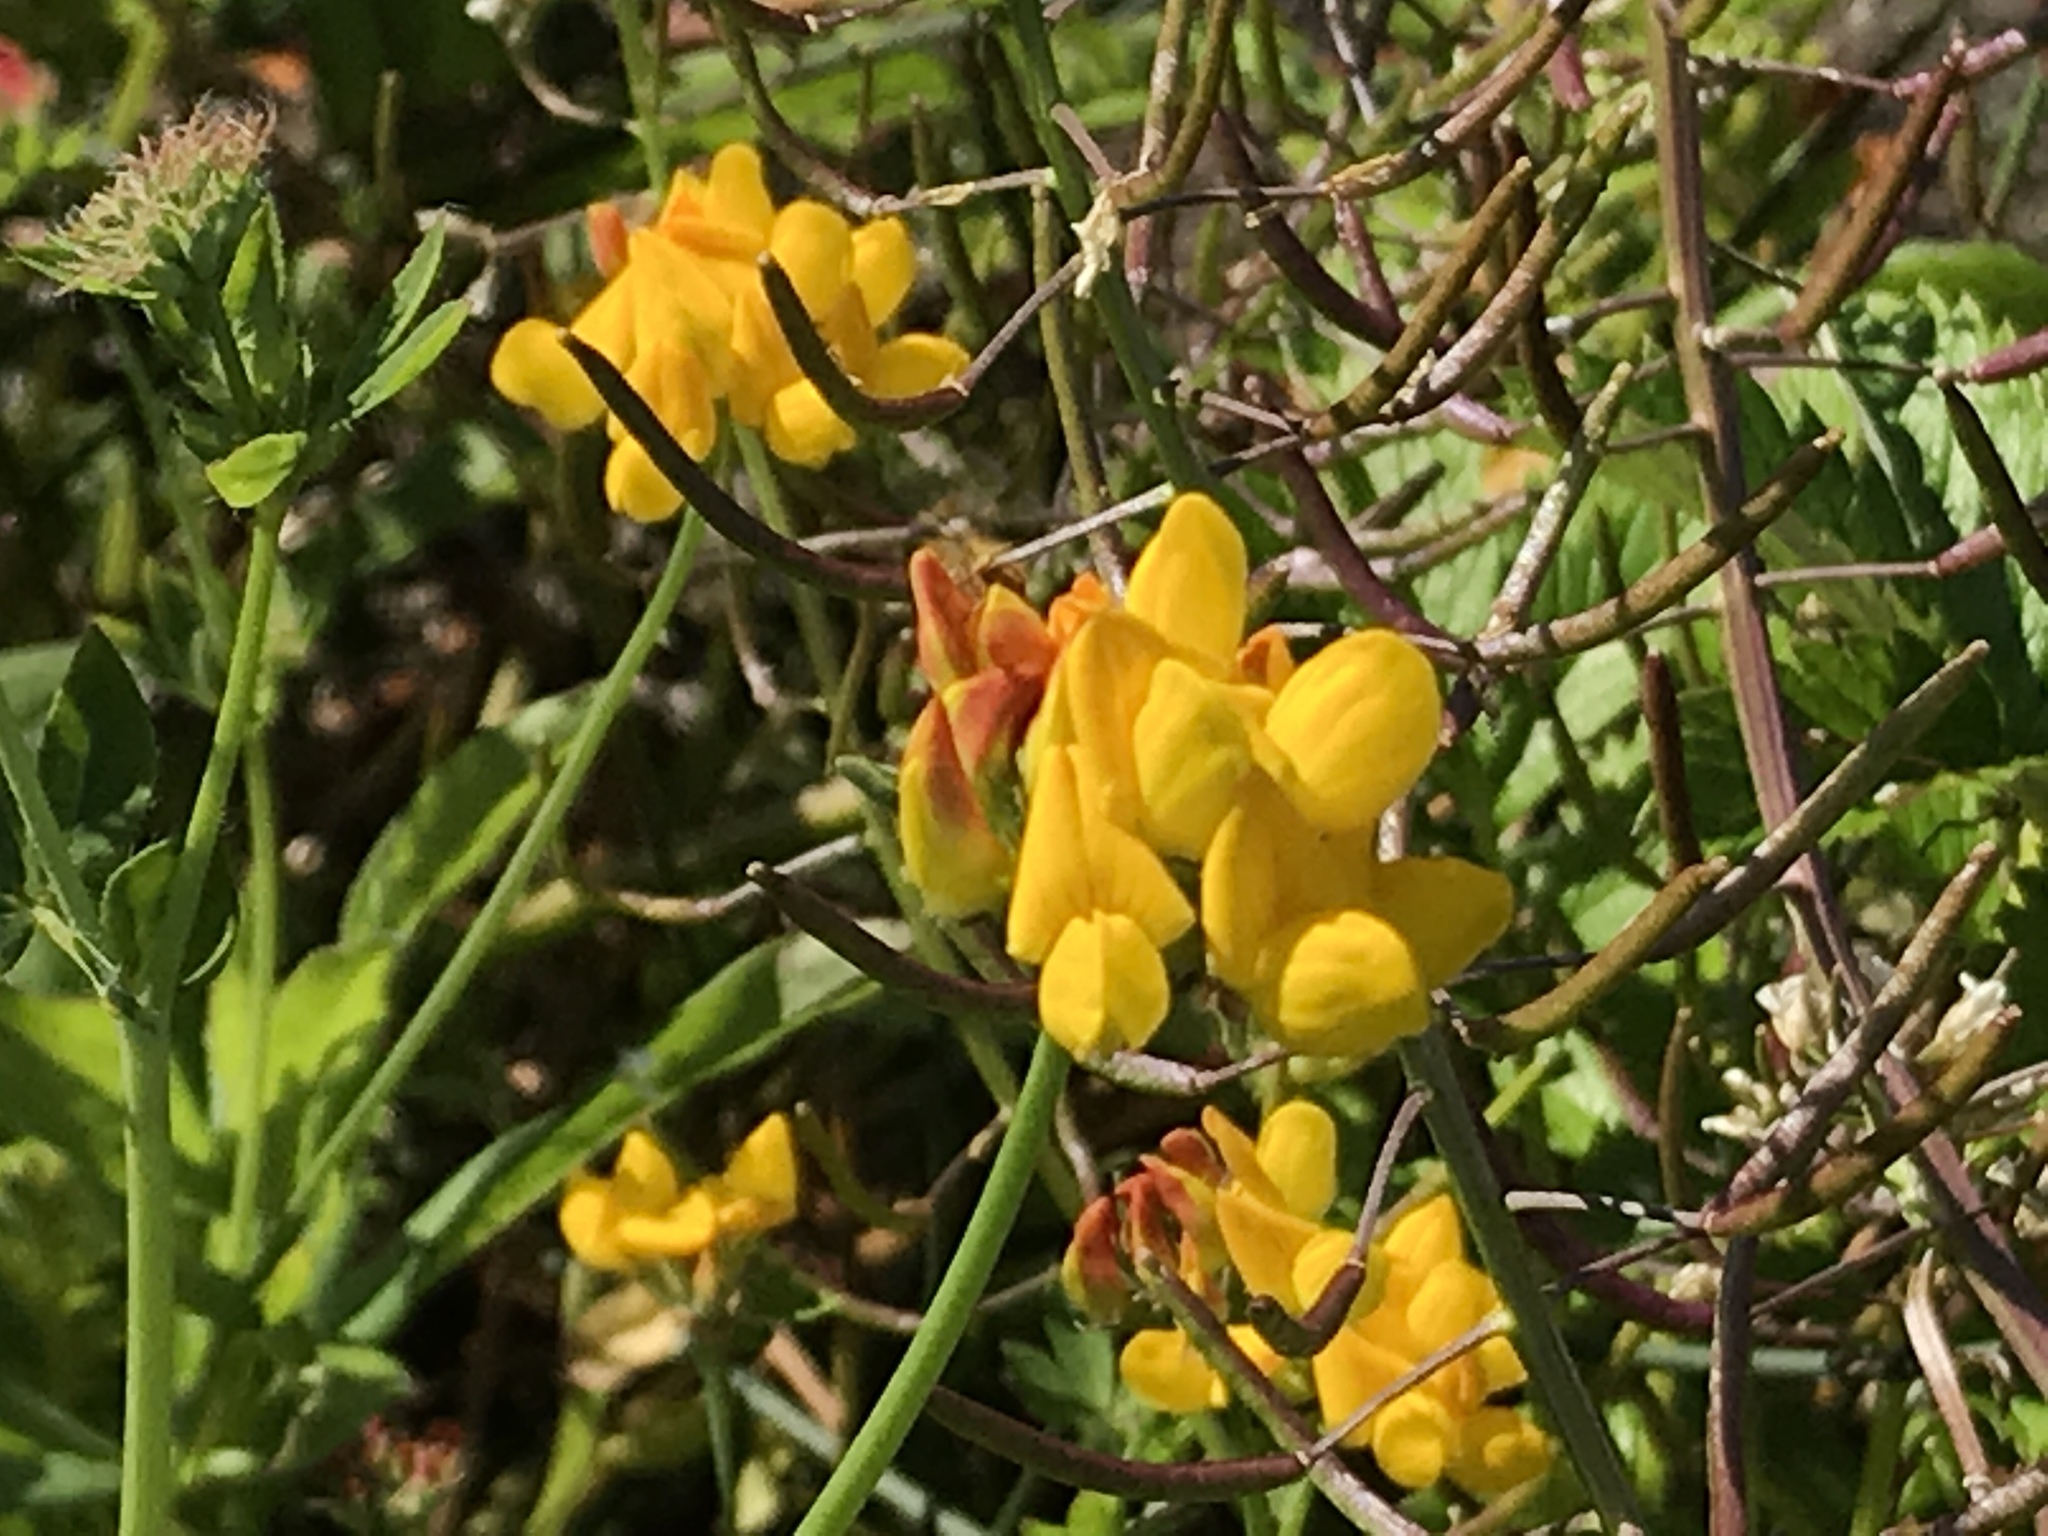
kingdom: Plantae
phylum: Tracheophyta
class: Magnoliopsida
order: Fabales
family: Fabaceae
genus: Lotus
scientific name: Lotus pedunculatus
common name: Greater birdsfoot-trefoil
